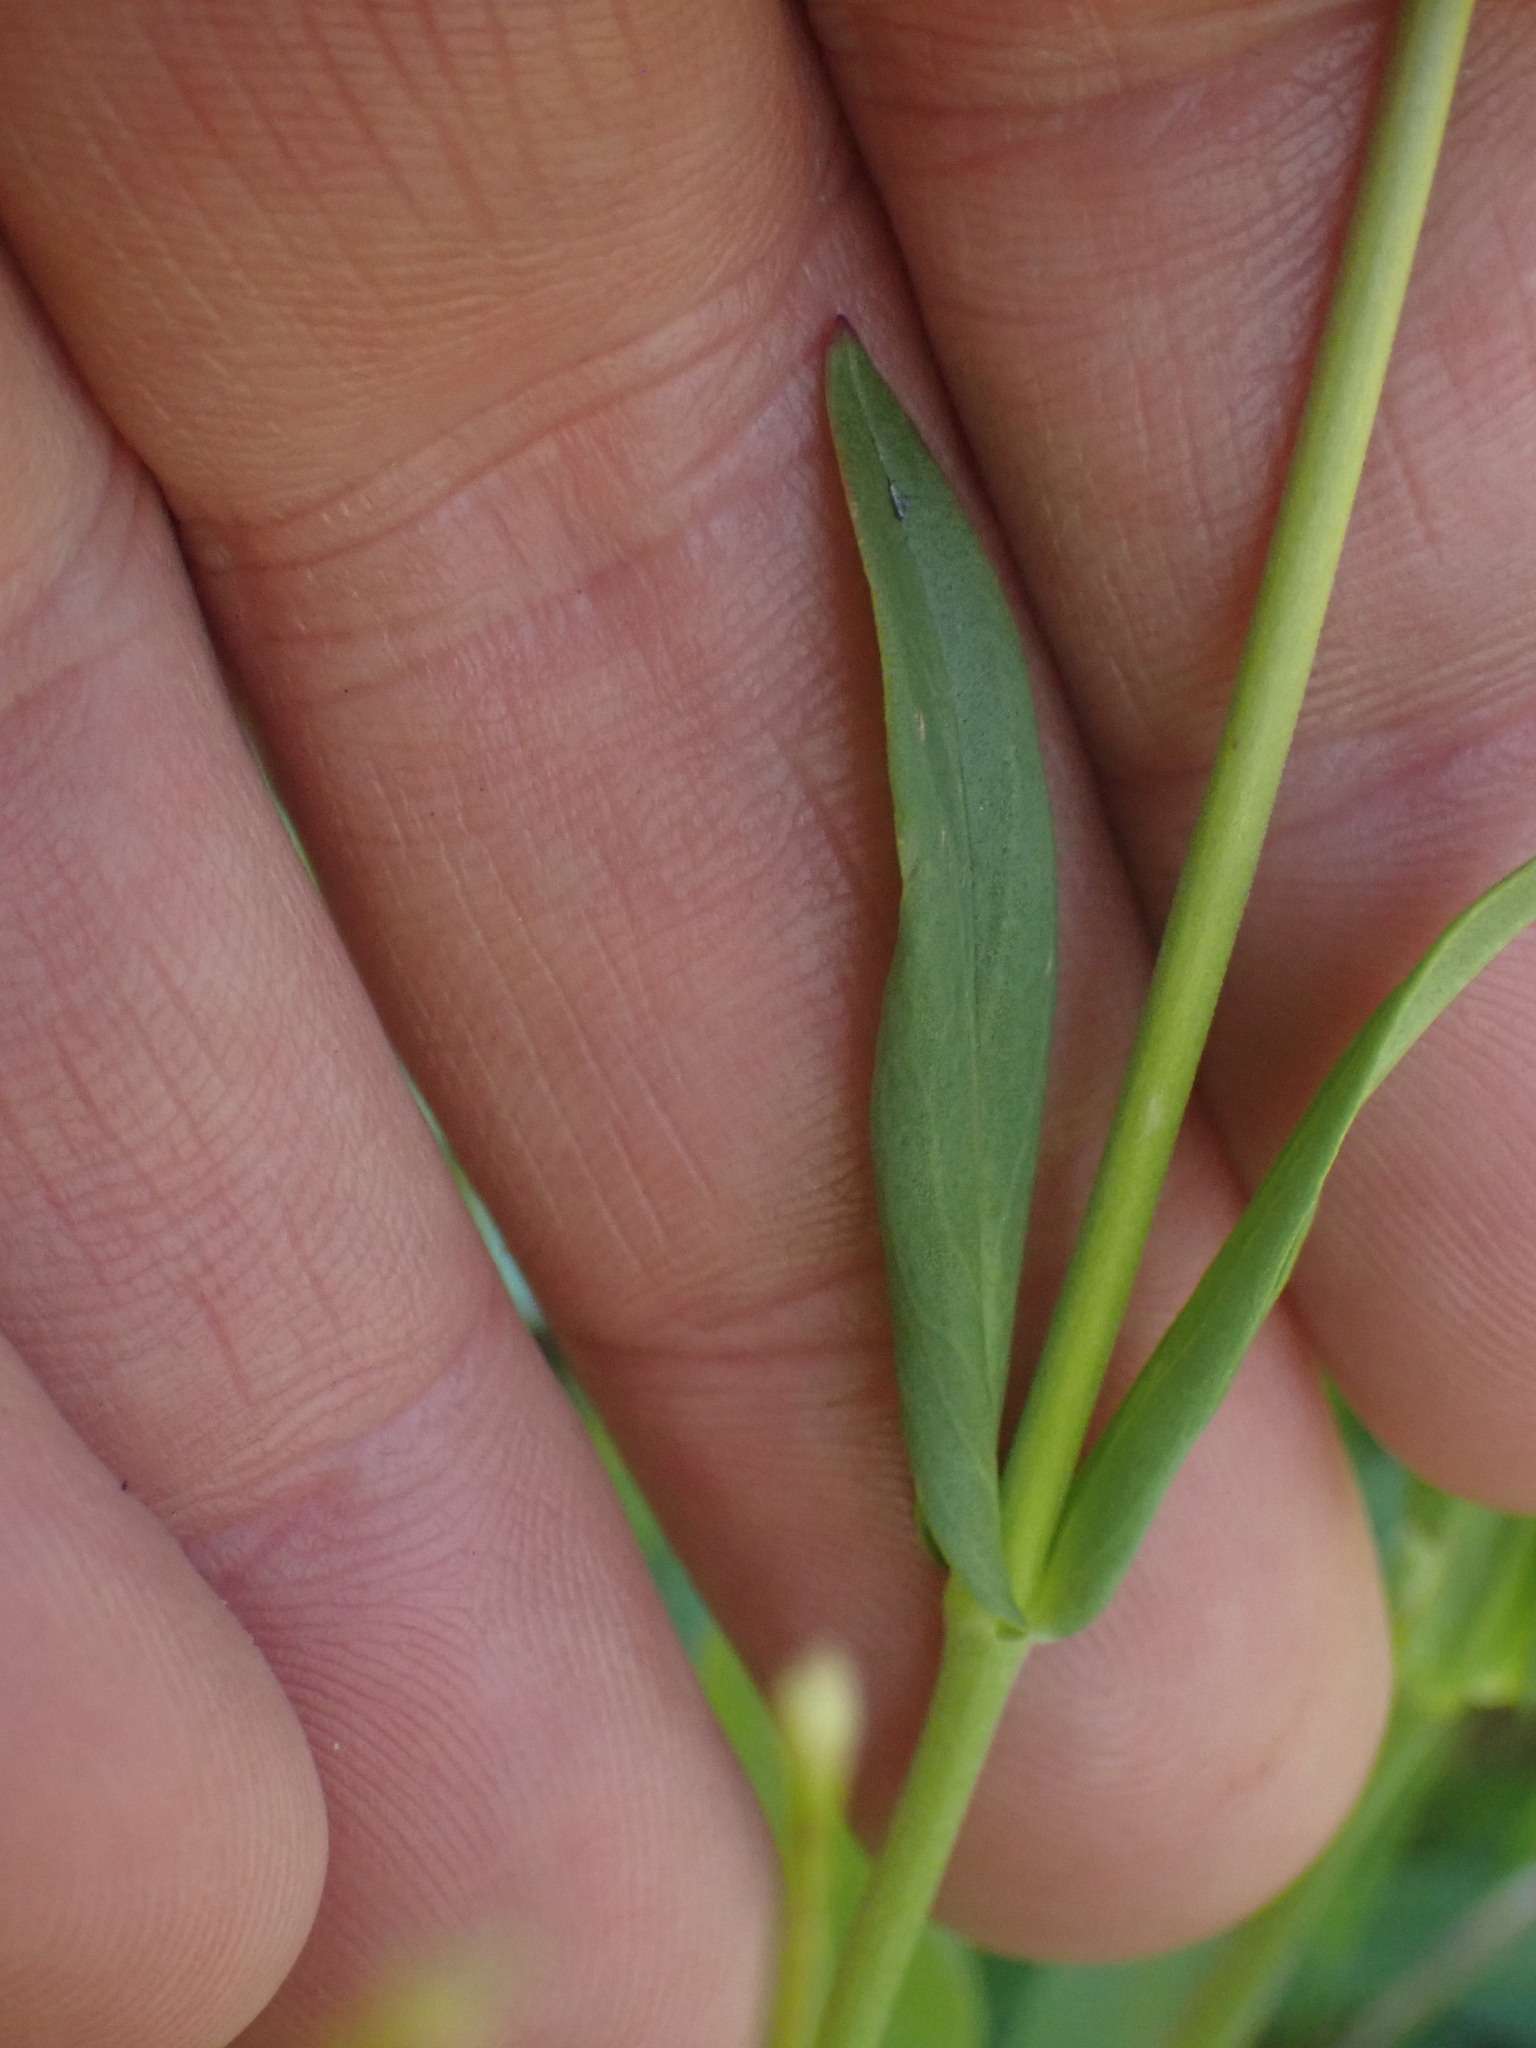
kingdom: Plantae
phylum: Tracheophyta
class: Magnoliopsida
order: Lamiales
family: Plantaginaceae
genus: Penstemon
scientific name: Penstemon confertus
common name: Lesser yellow beardtongue
